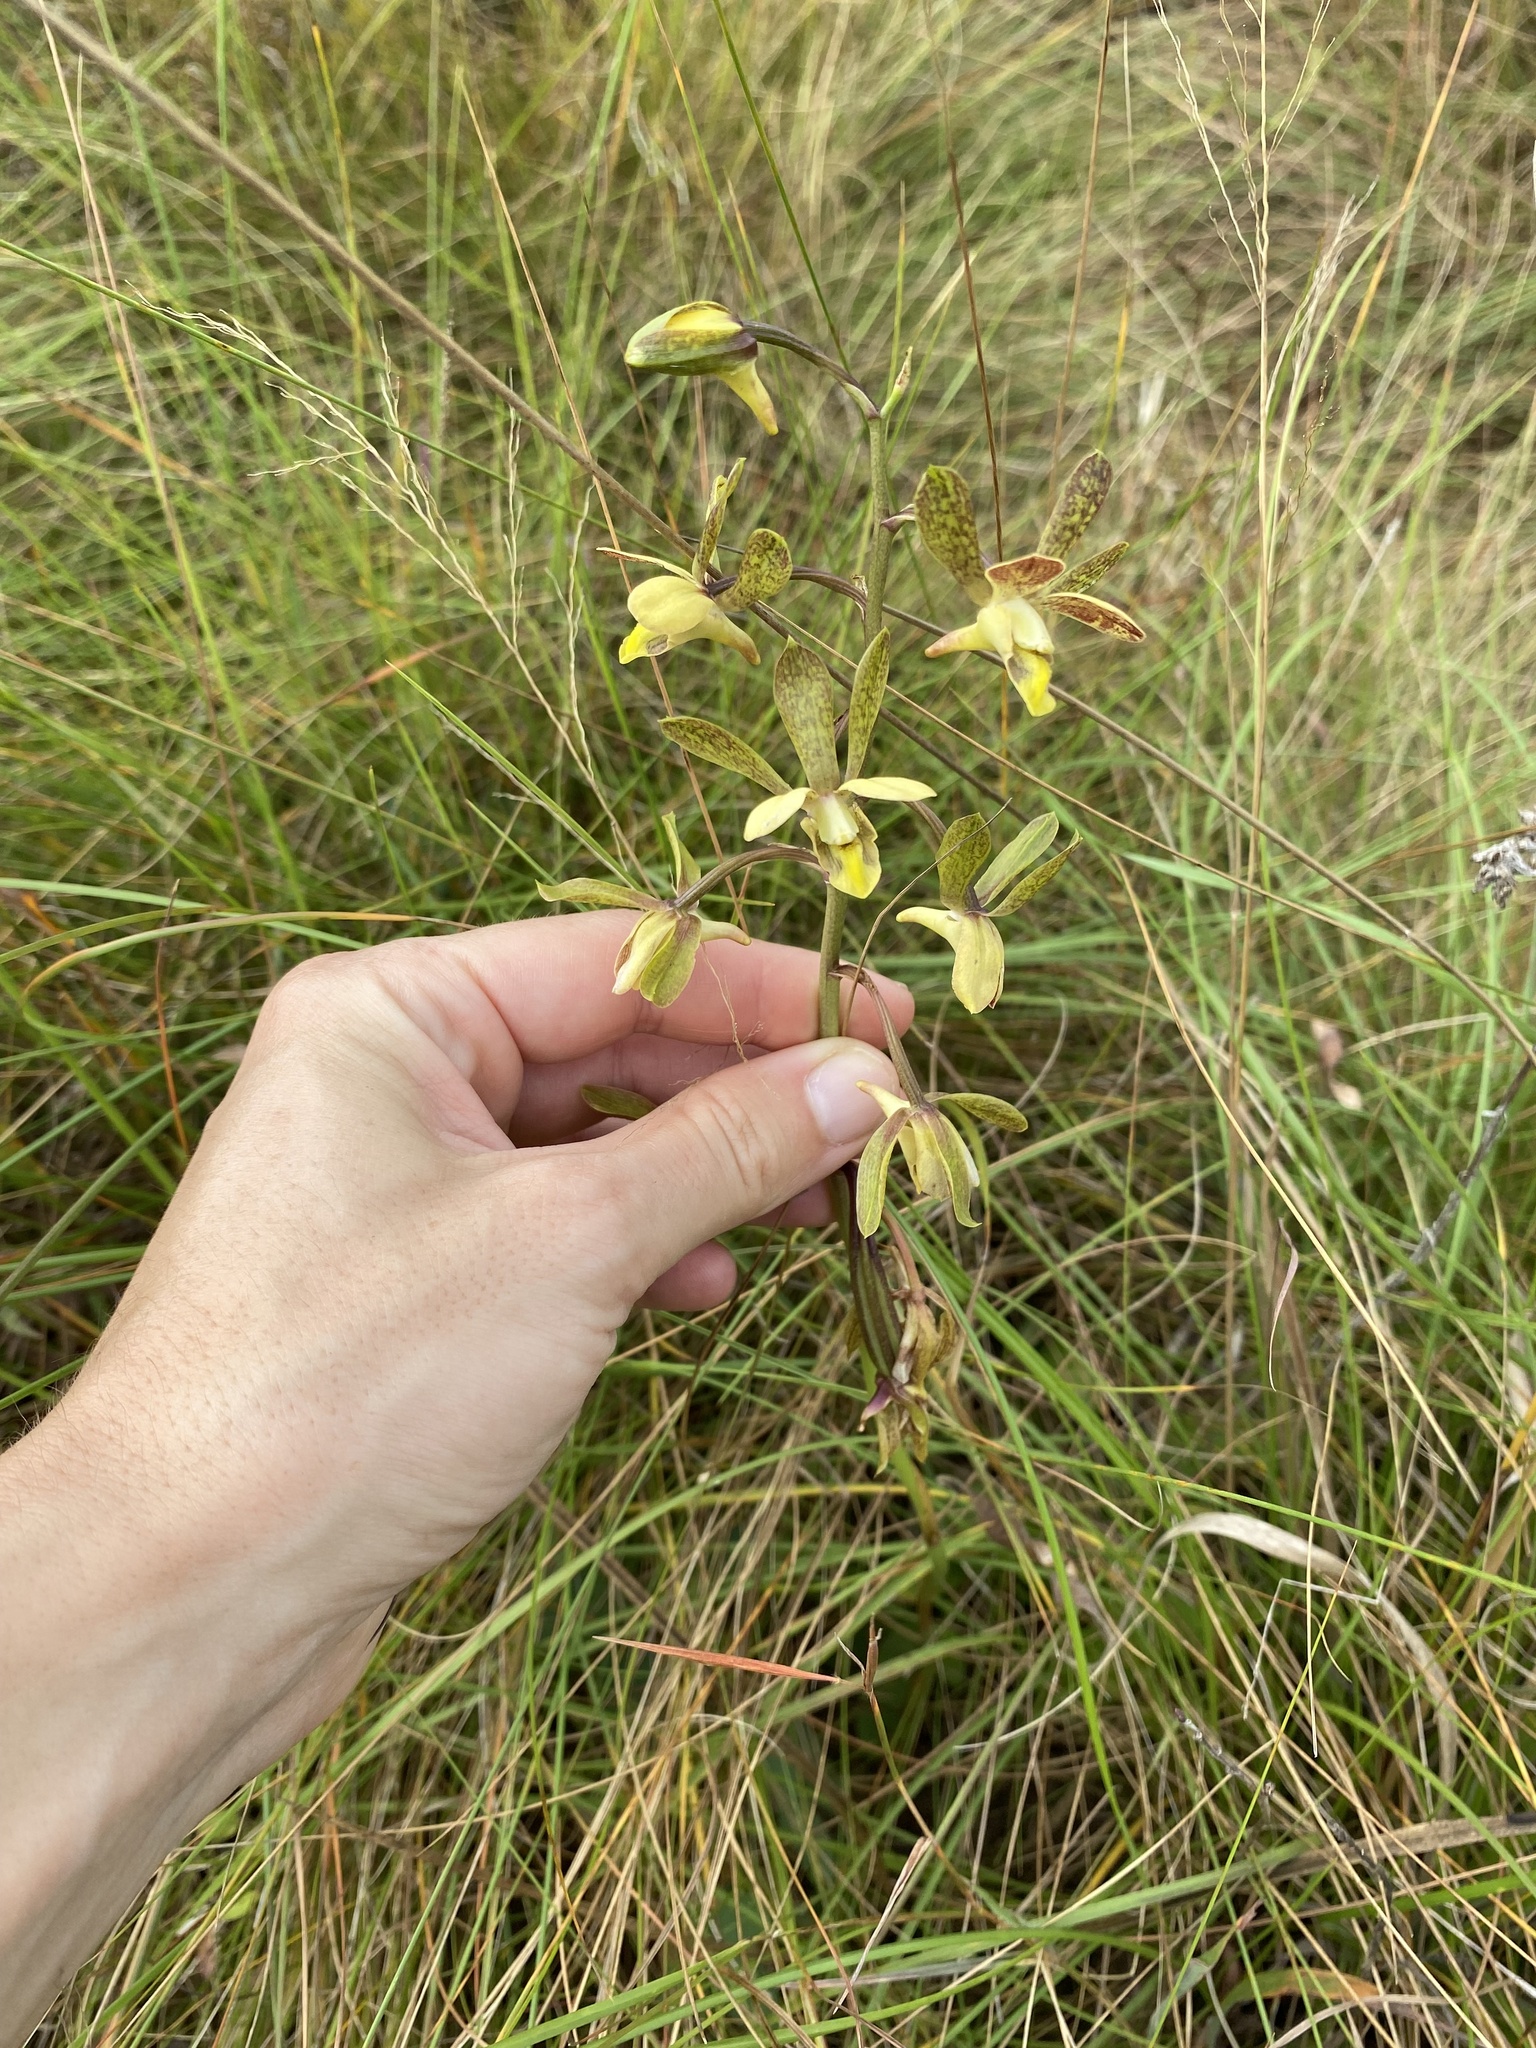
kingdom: Plantae
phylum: Tracheophyta
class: Liliopsida
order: Asparagales
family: Orchidaceae
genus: Eulophia
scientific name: Eulophia parviflora
